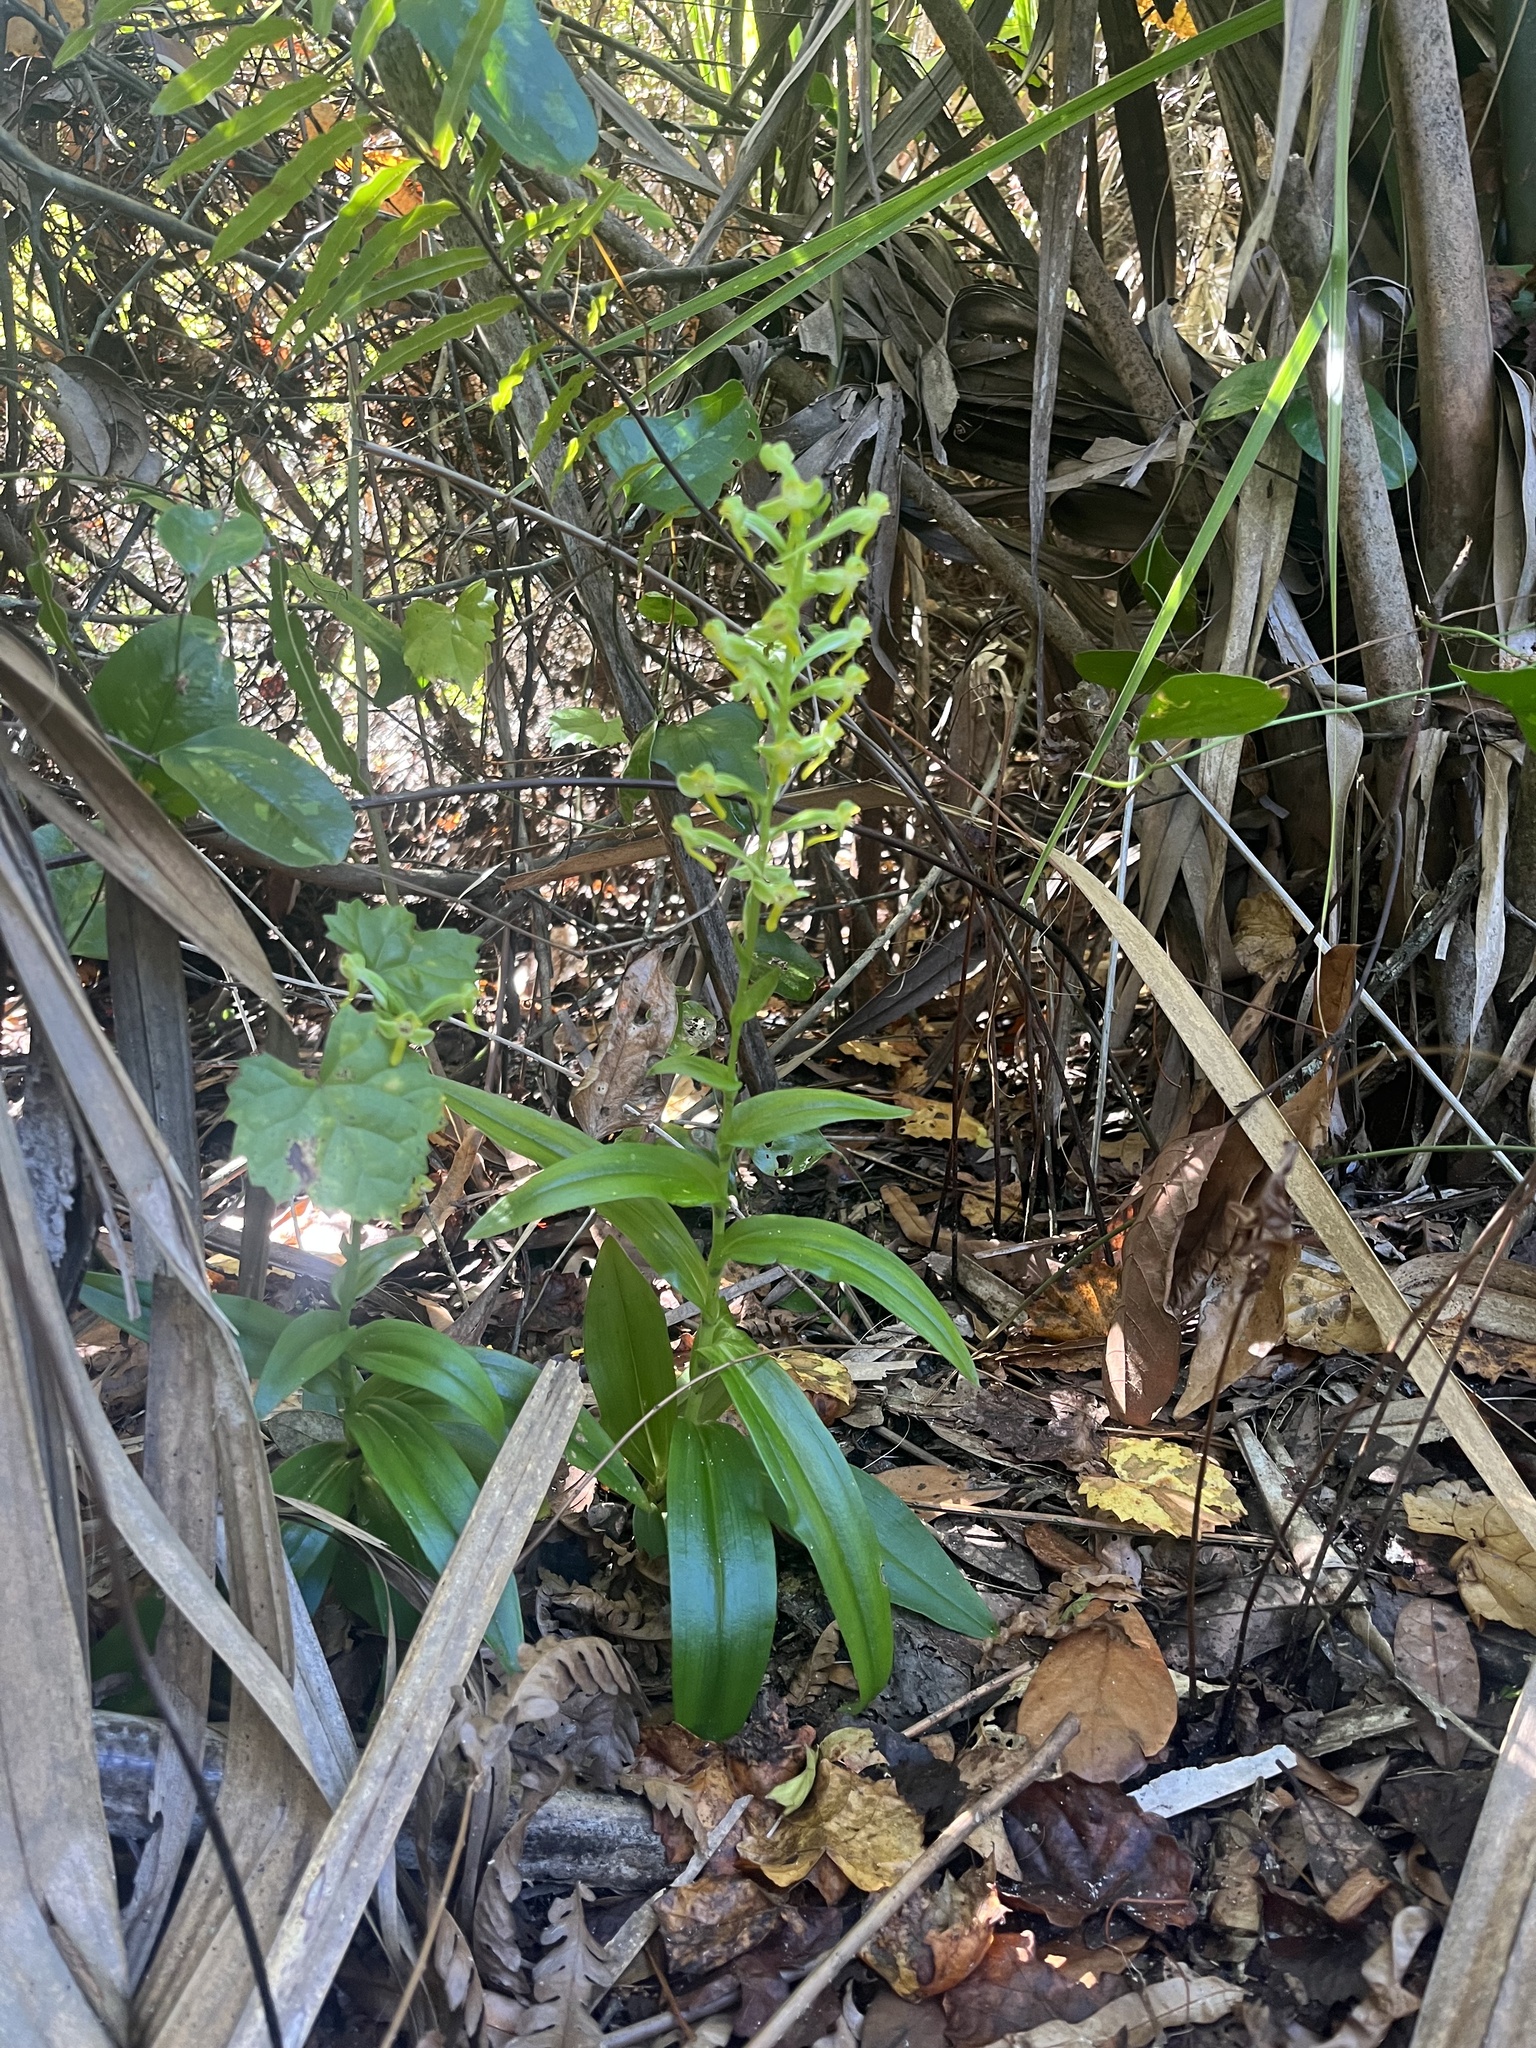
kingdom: Plantae
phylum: Tracheophyta
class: Liliopsida
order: Asparagales
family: Orchidaceae
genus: Habenaria
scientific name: Habenaria floribunda
